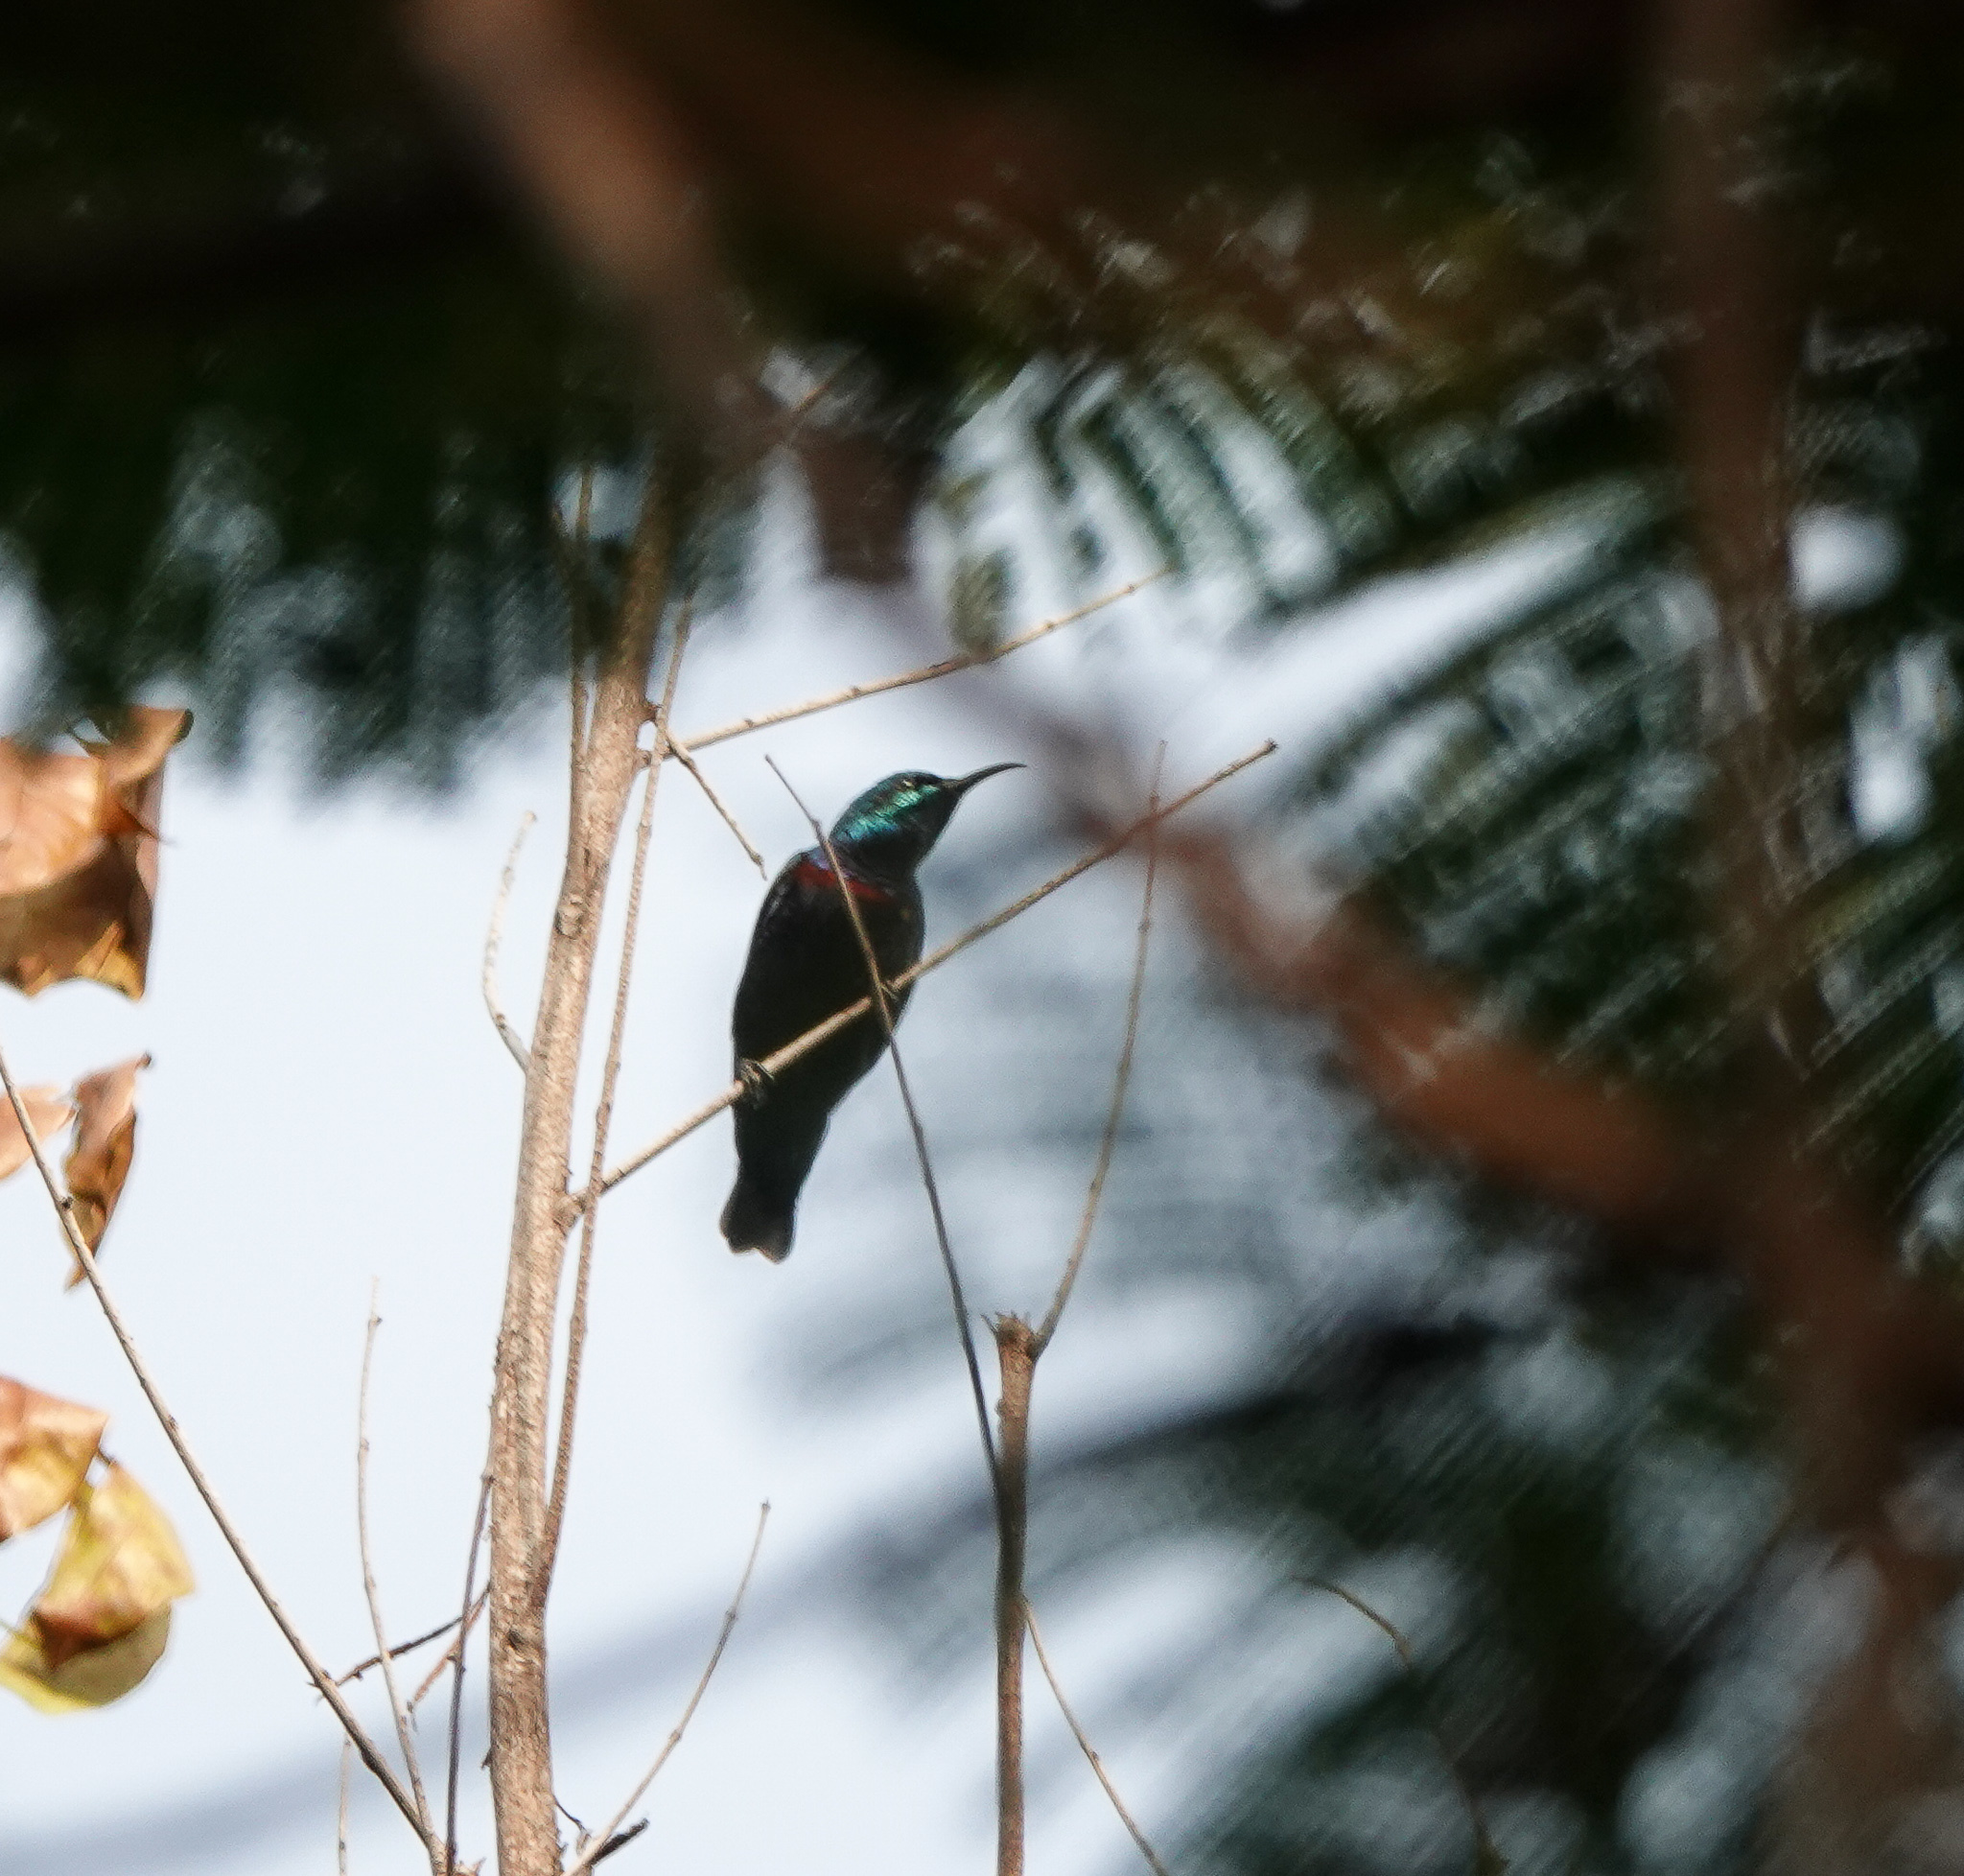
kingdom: Animalia
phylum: Chordata
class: Aves
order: Passeriformes
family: Nectariniidae
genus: Cinnyris
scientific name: Cinnyris asiaticus
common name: Purple sunbird
